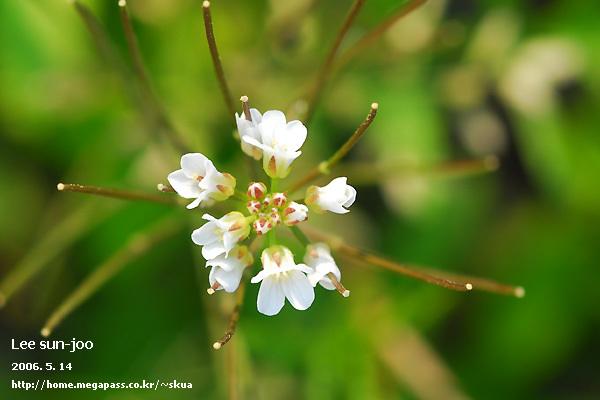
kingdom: Plantae
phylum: Tracheophyta
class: Magnoliopsida
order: Brassicales
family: Brassicaceae
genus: Cardamine
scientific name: Cardamine occulta
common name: Asian wavy bittercress
